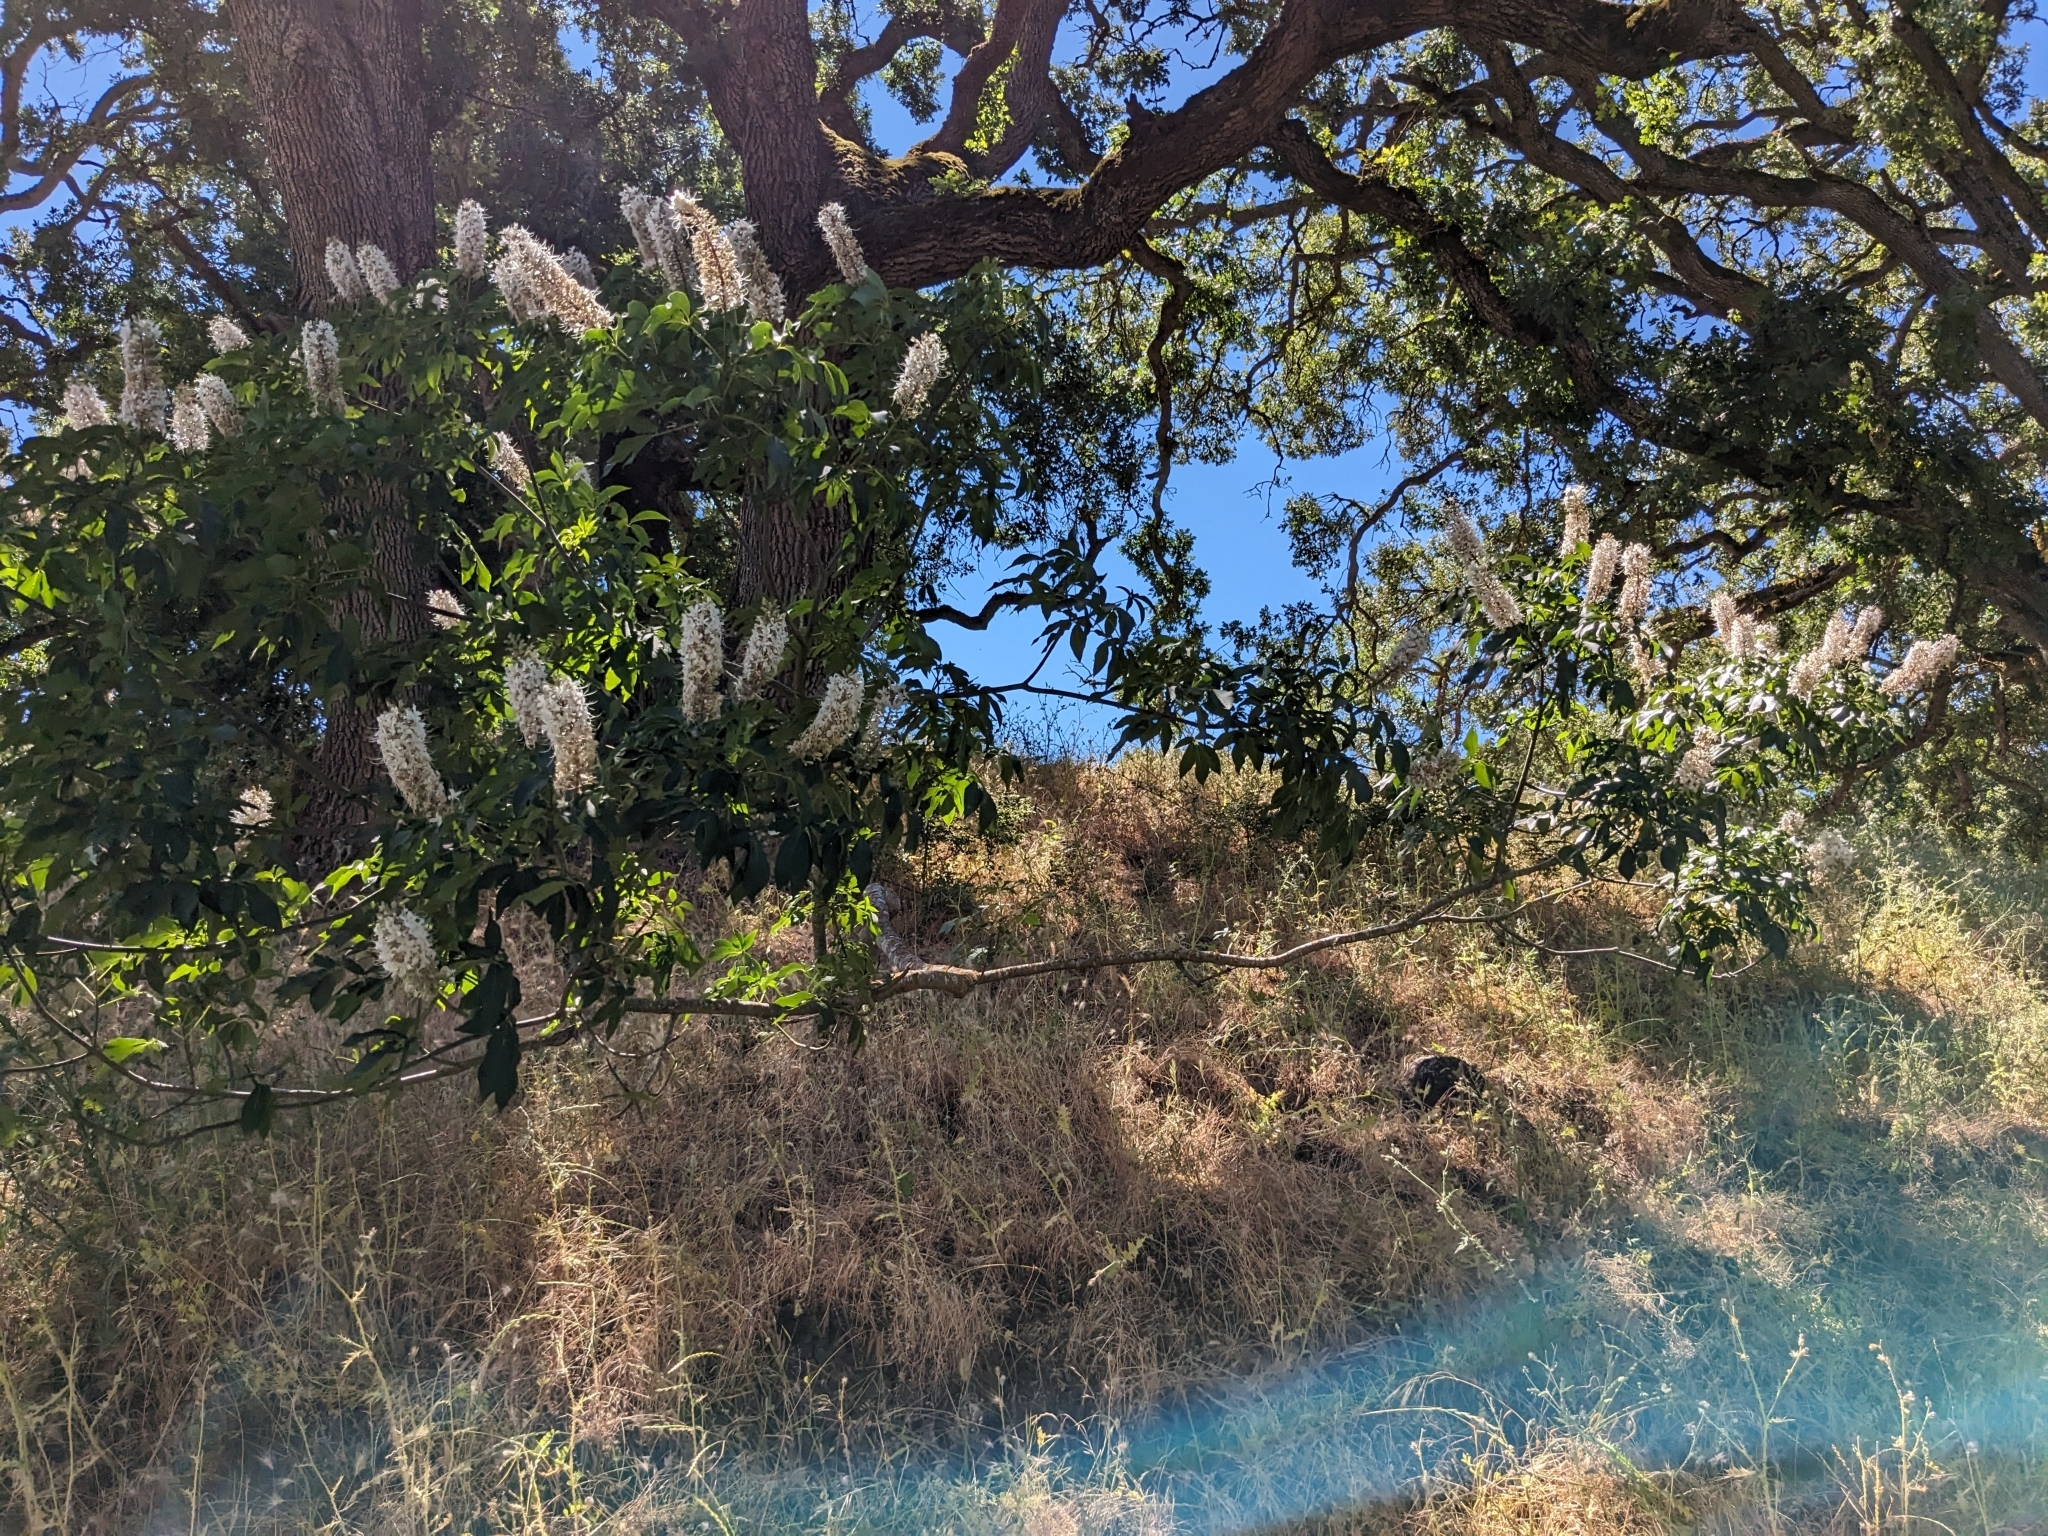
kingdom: Plantae
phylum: Tracheophyta
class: Magnoliopsida
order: Sapindales
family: Sapindaceae
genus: Aesculus
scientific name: Aesculus californica
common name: California buckeye
